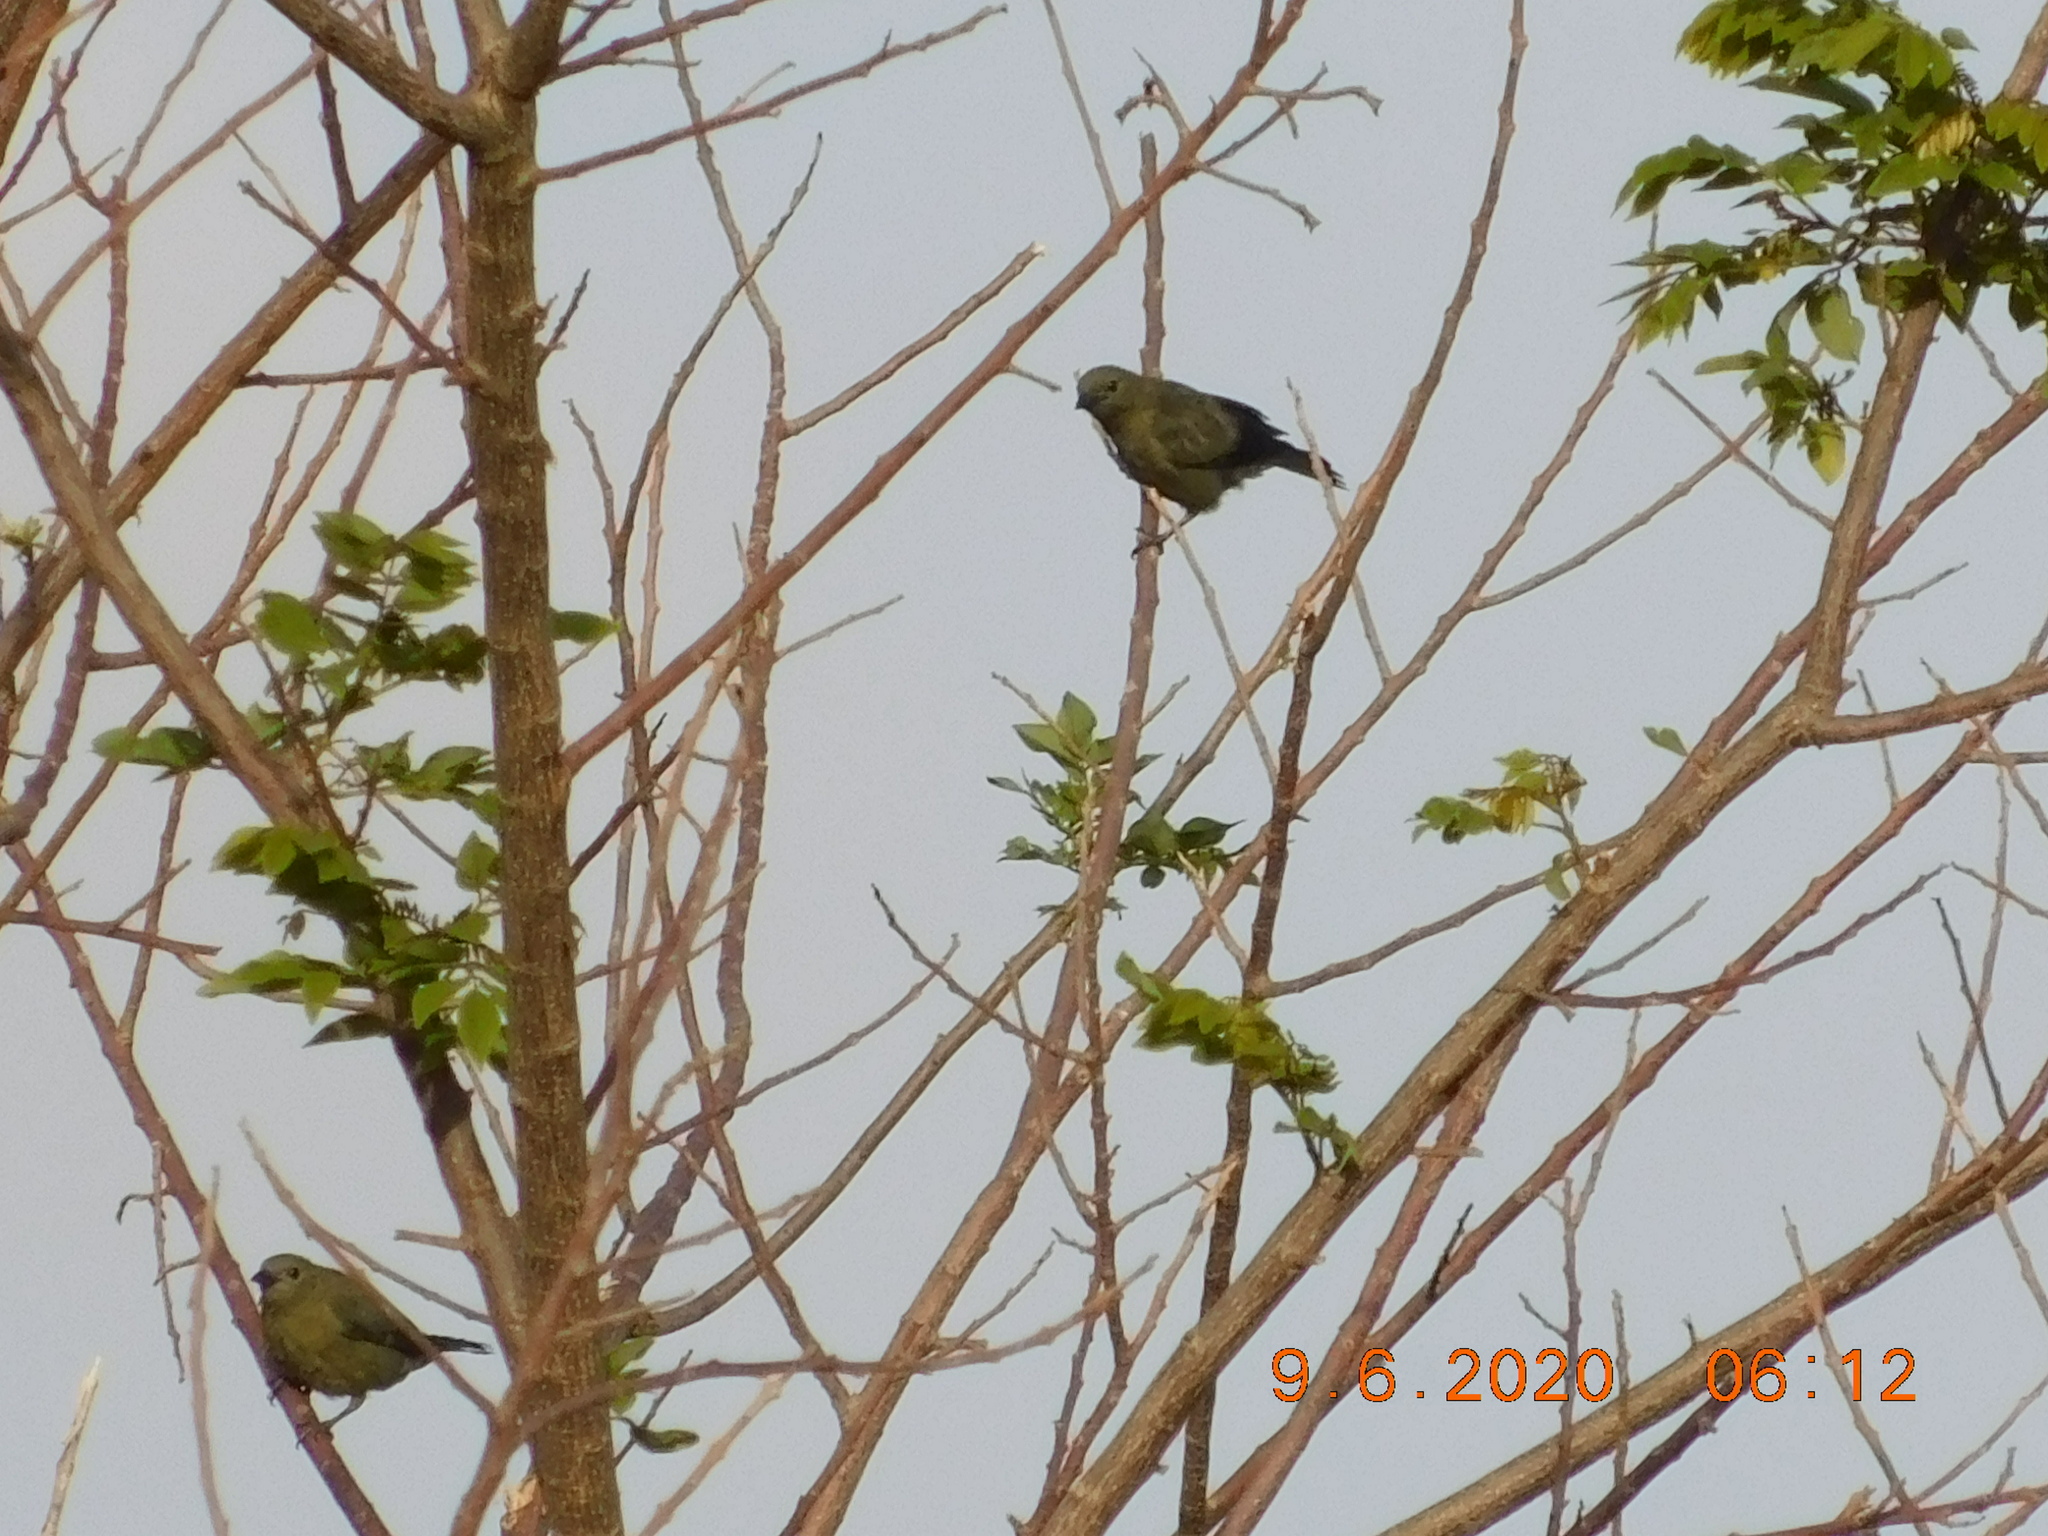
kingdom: Animalia
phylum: Chordata
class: Aves
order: Passeriformes
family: Thraupidae
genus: Thraupis
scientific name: Thraupis palmarum
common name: Palm tanager
